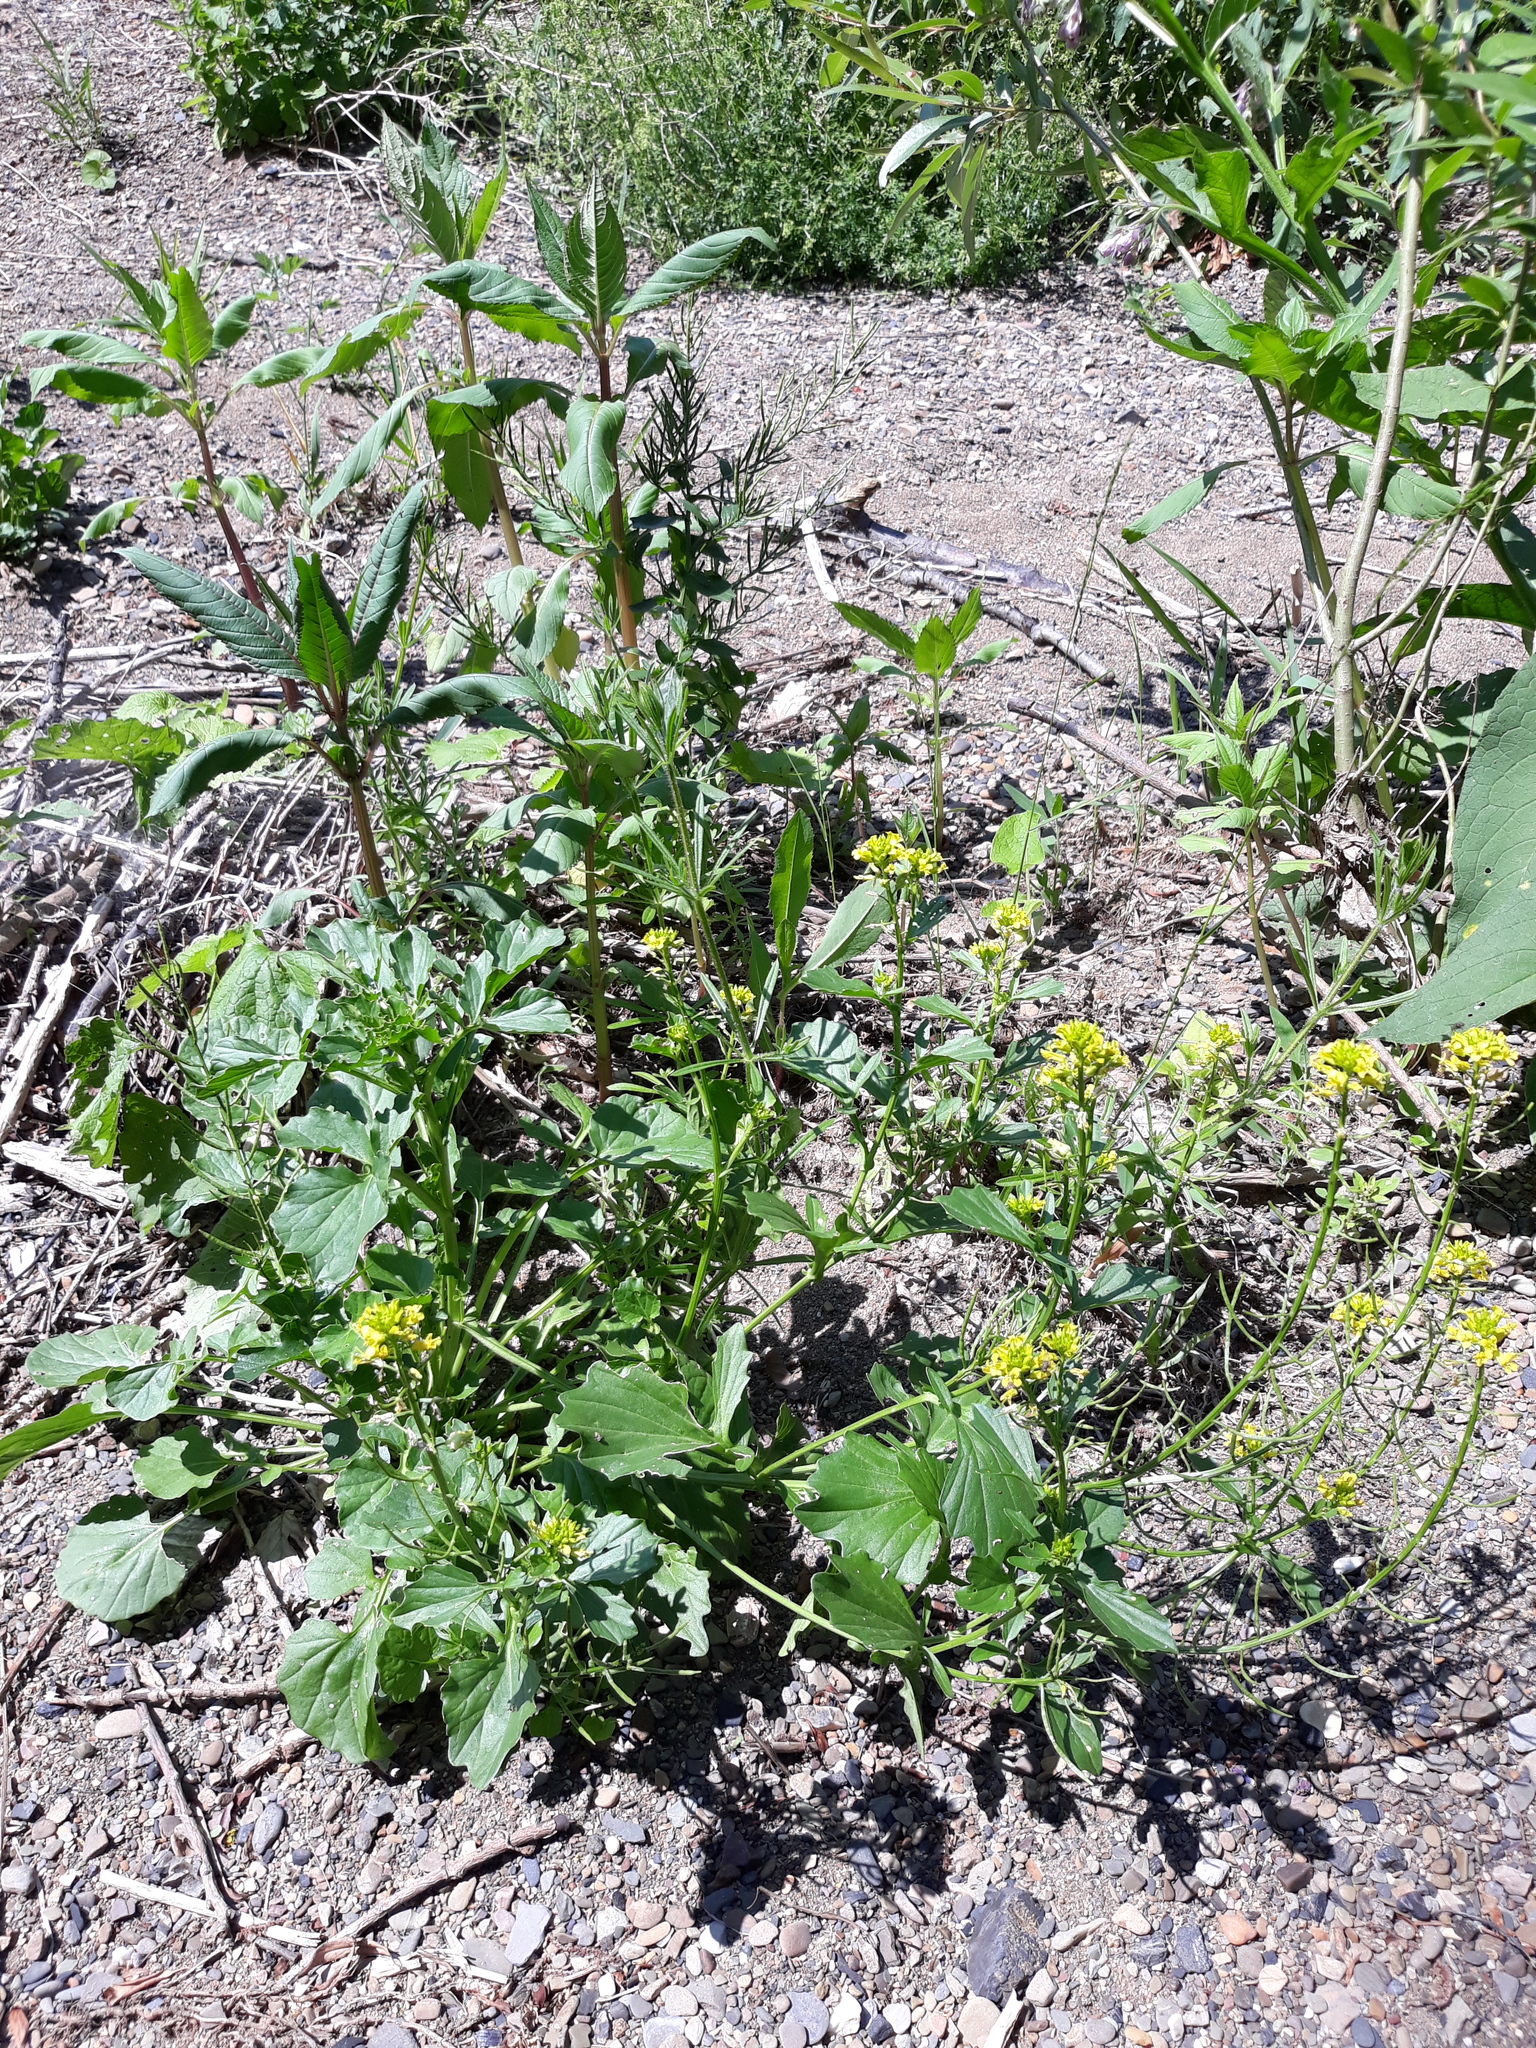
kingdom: Plantae
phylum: Tracheophyta
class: Magnoliopsida
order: Brassicales
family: Brassicaceae
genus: Barbarea
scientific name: Barbarea vulgaris
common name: Cressy-greens
